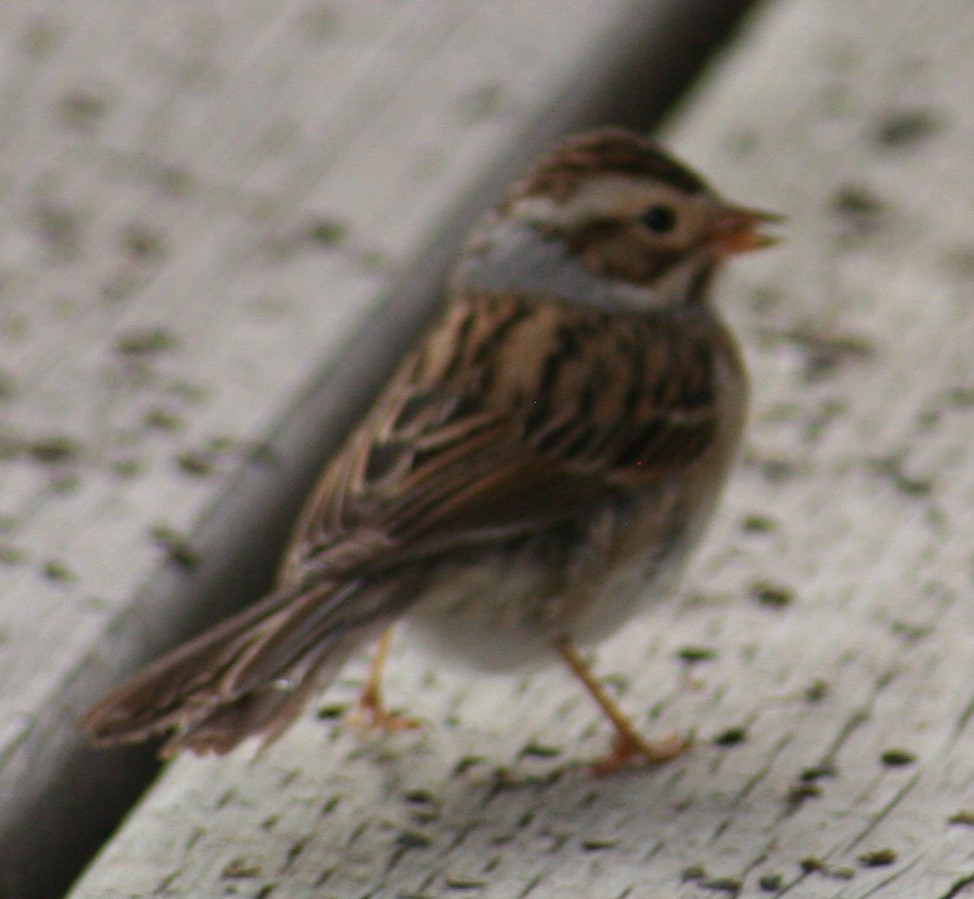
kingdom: Animalia
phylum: Chordata
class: Aves
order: Passeriformes
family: Passerellidae
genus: Spizella
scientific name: Spizella pallida
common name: Clay-colored sparrow
